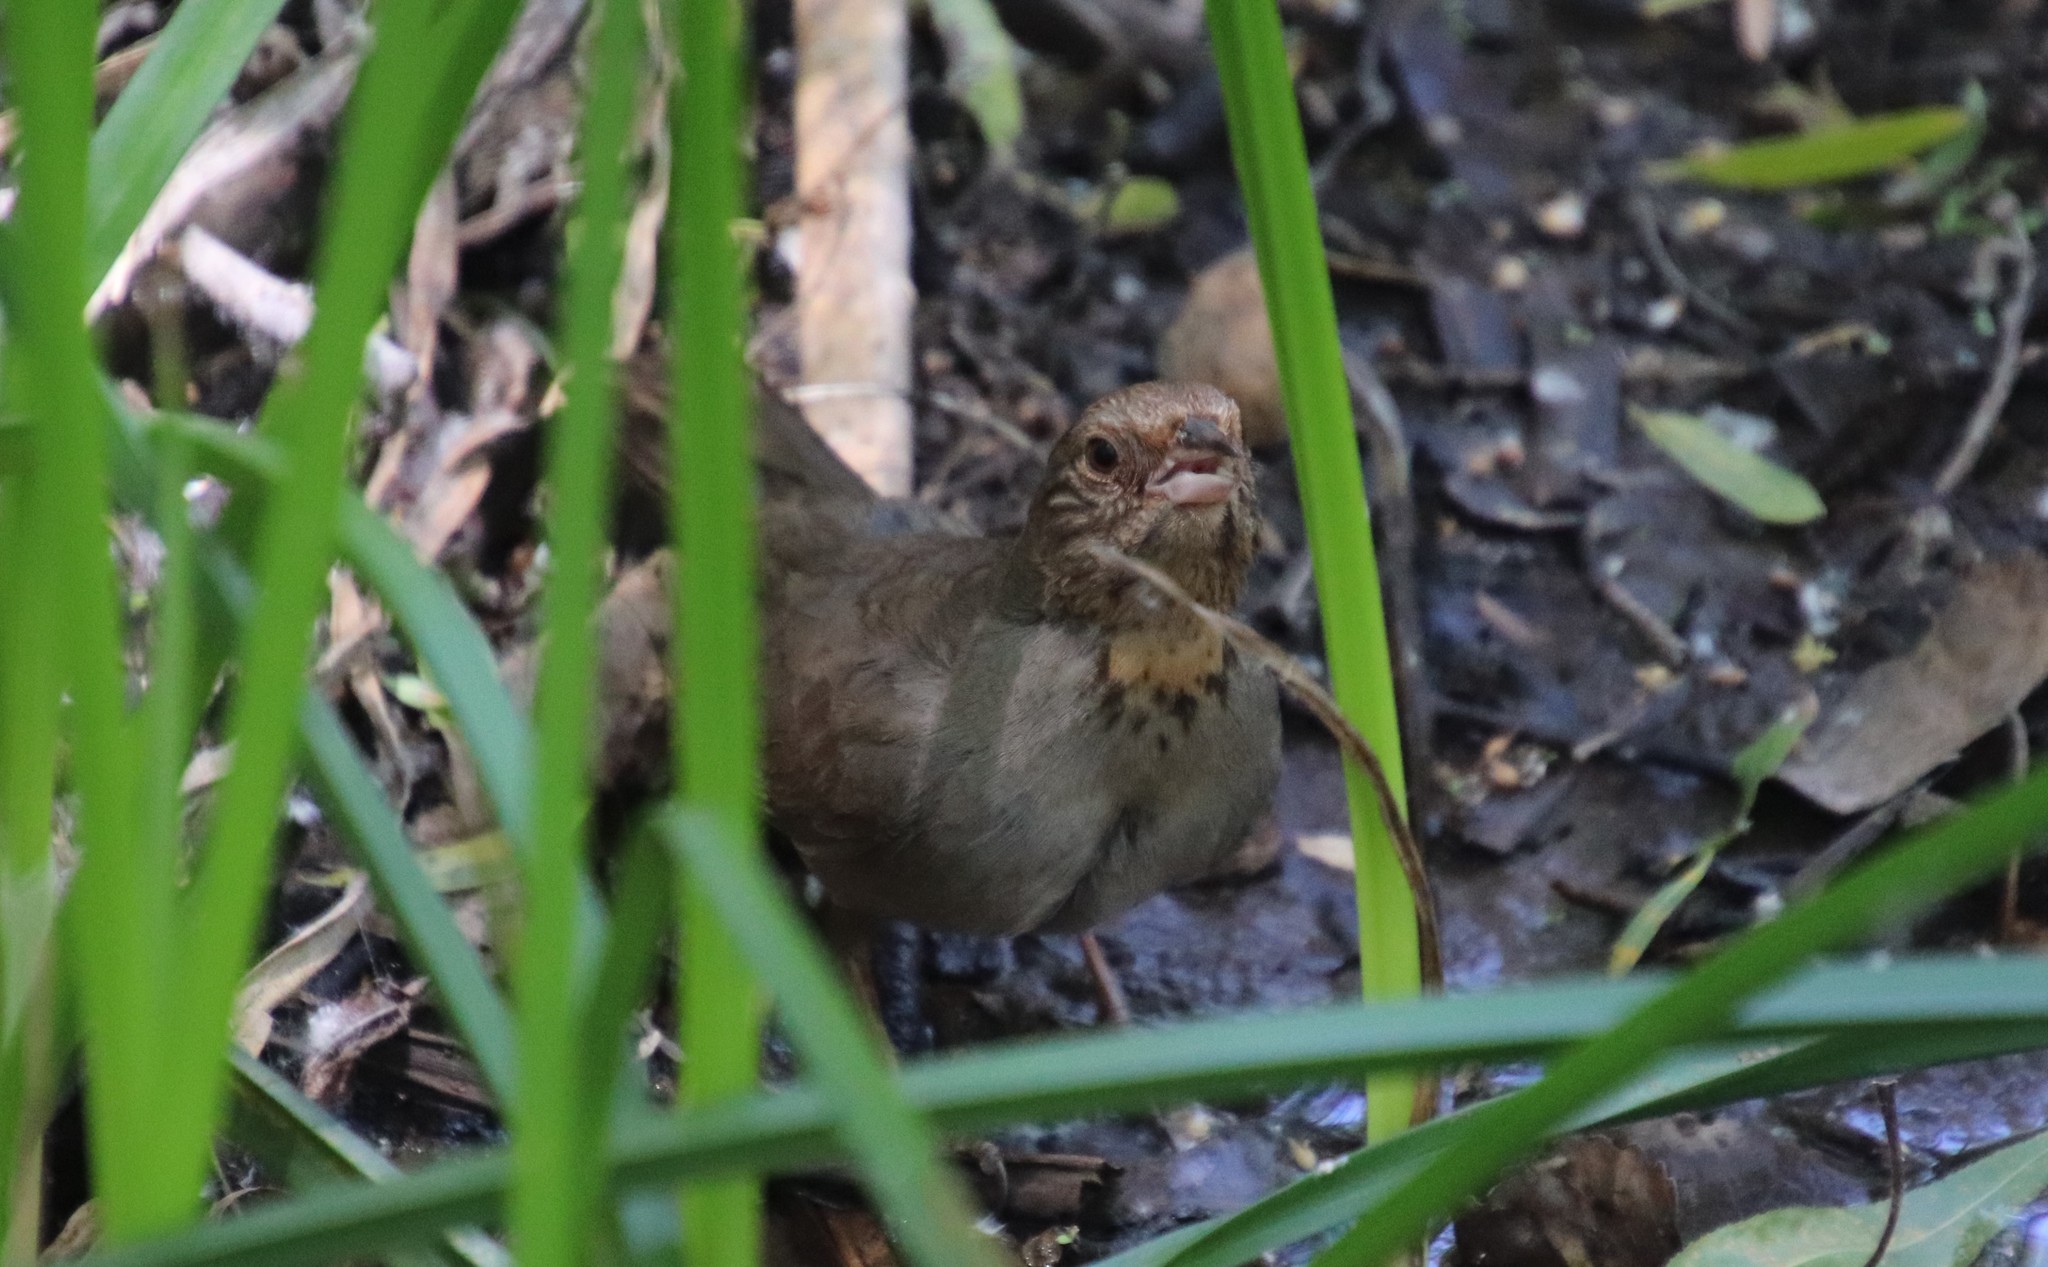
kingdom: Animalia
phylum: Chordata
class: Aves
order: Passeriformes
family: Passerellidae
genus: Melozone
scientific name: Melozone crissalis
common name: California towhee
